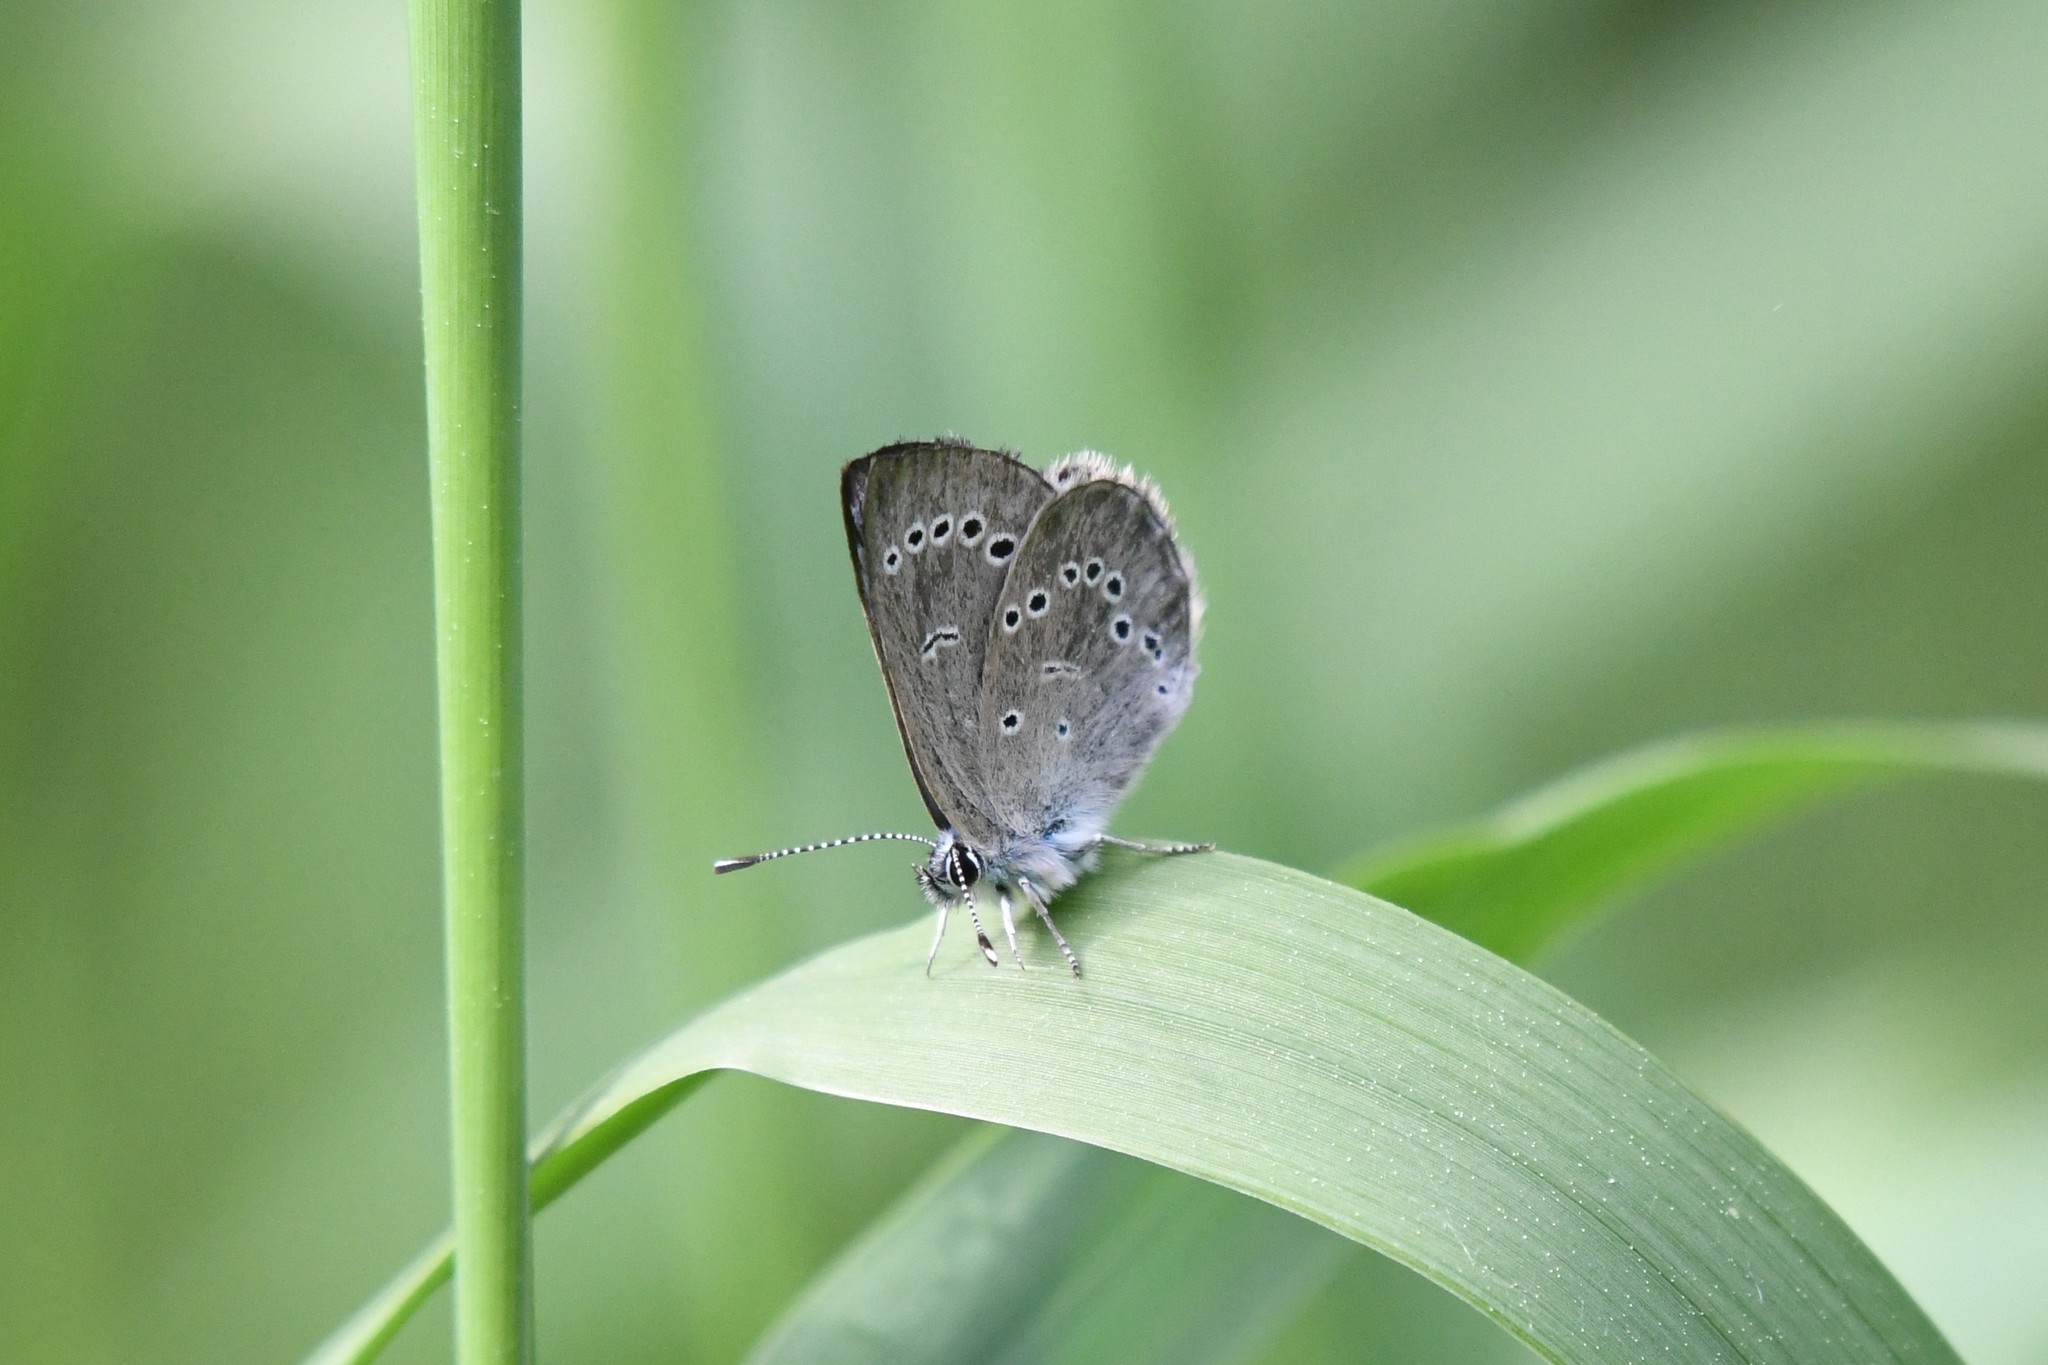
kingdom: Animalia
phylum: Arthropoda
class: Insecta
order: Lepidoptera
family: Lycaenidae
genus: Glaucopsyche
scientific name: Glaucopsyche lygdamus
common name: Silvery blue
